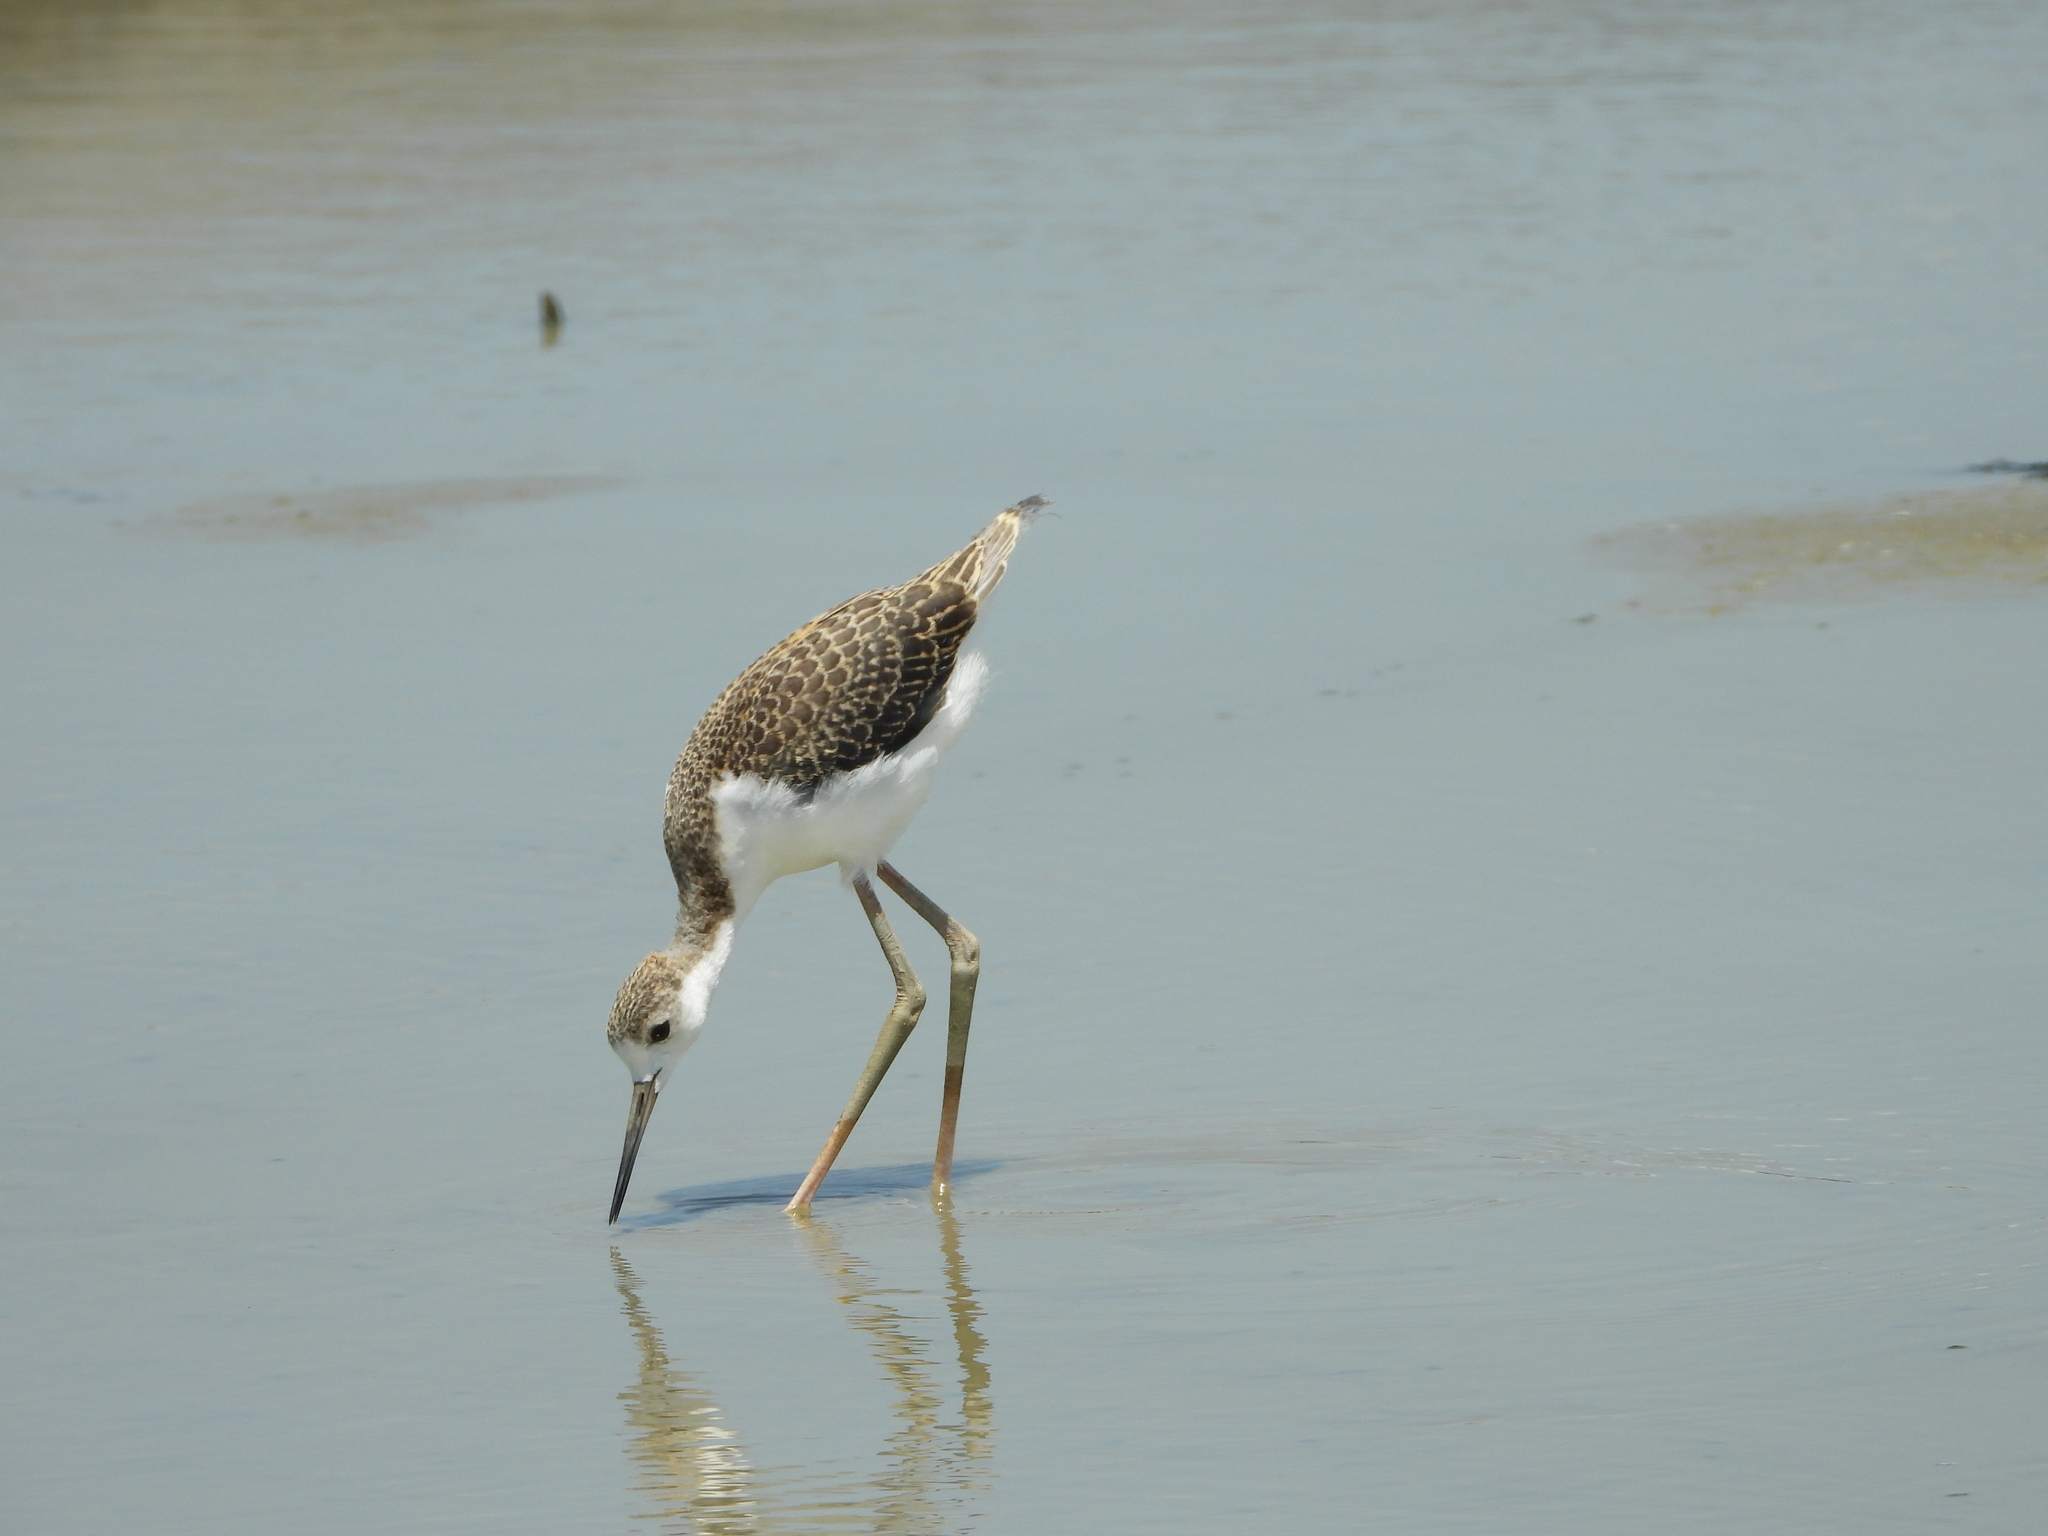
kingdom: Animalia
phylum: Chordata
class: Aves
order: Charadriiformes
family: Recurvirostridae
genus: Himantopus
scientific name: Himantopus himantopus
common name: Black-winged stilt
